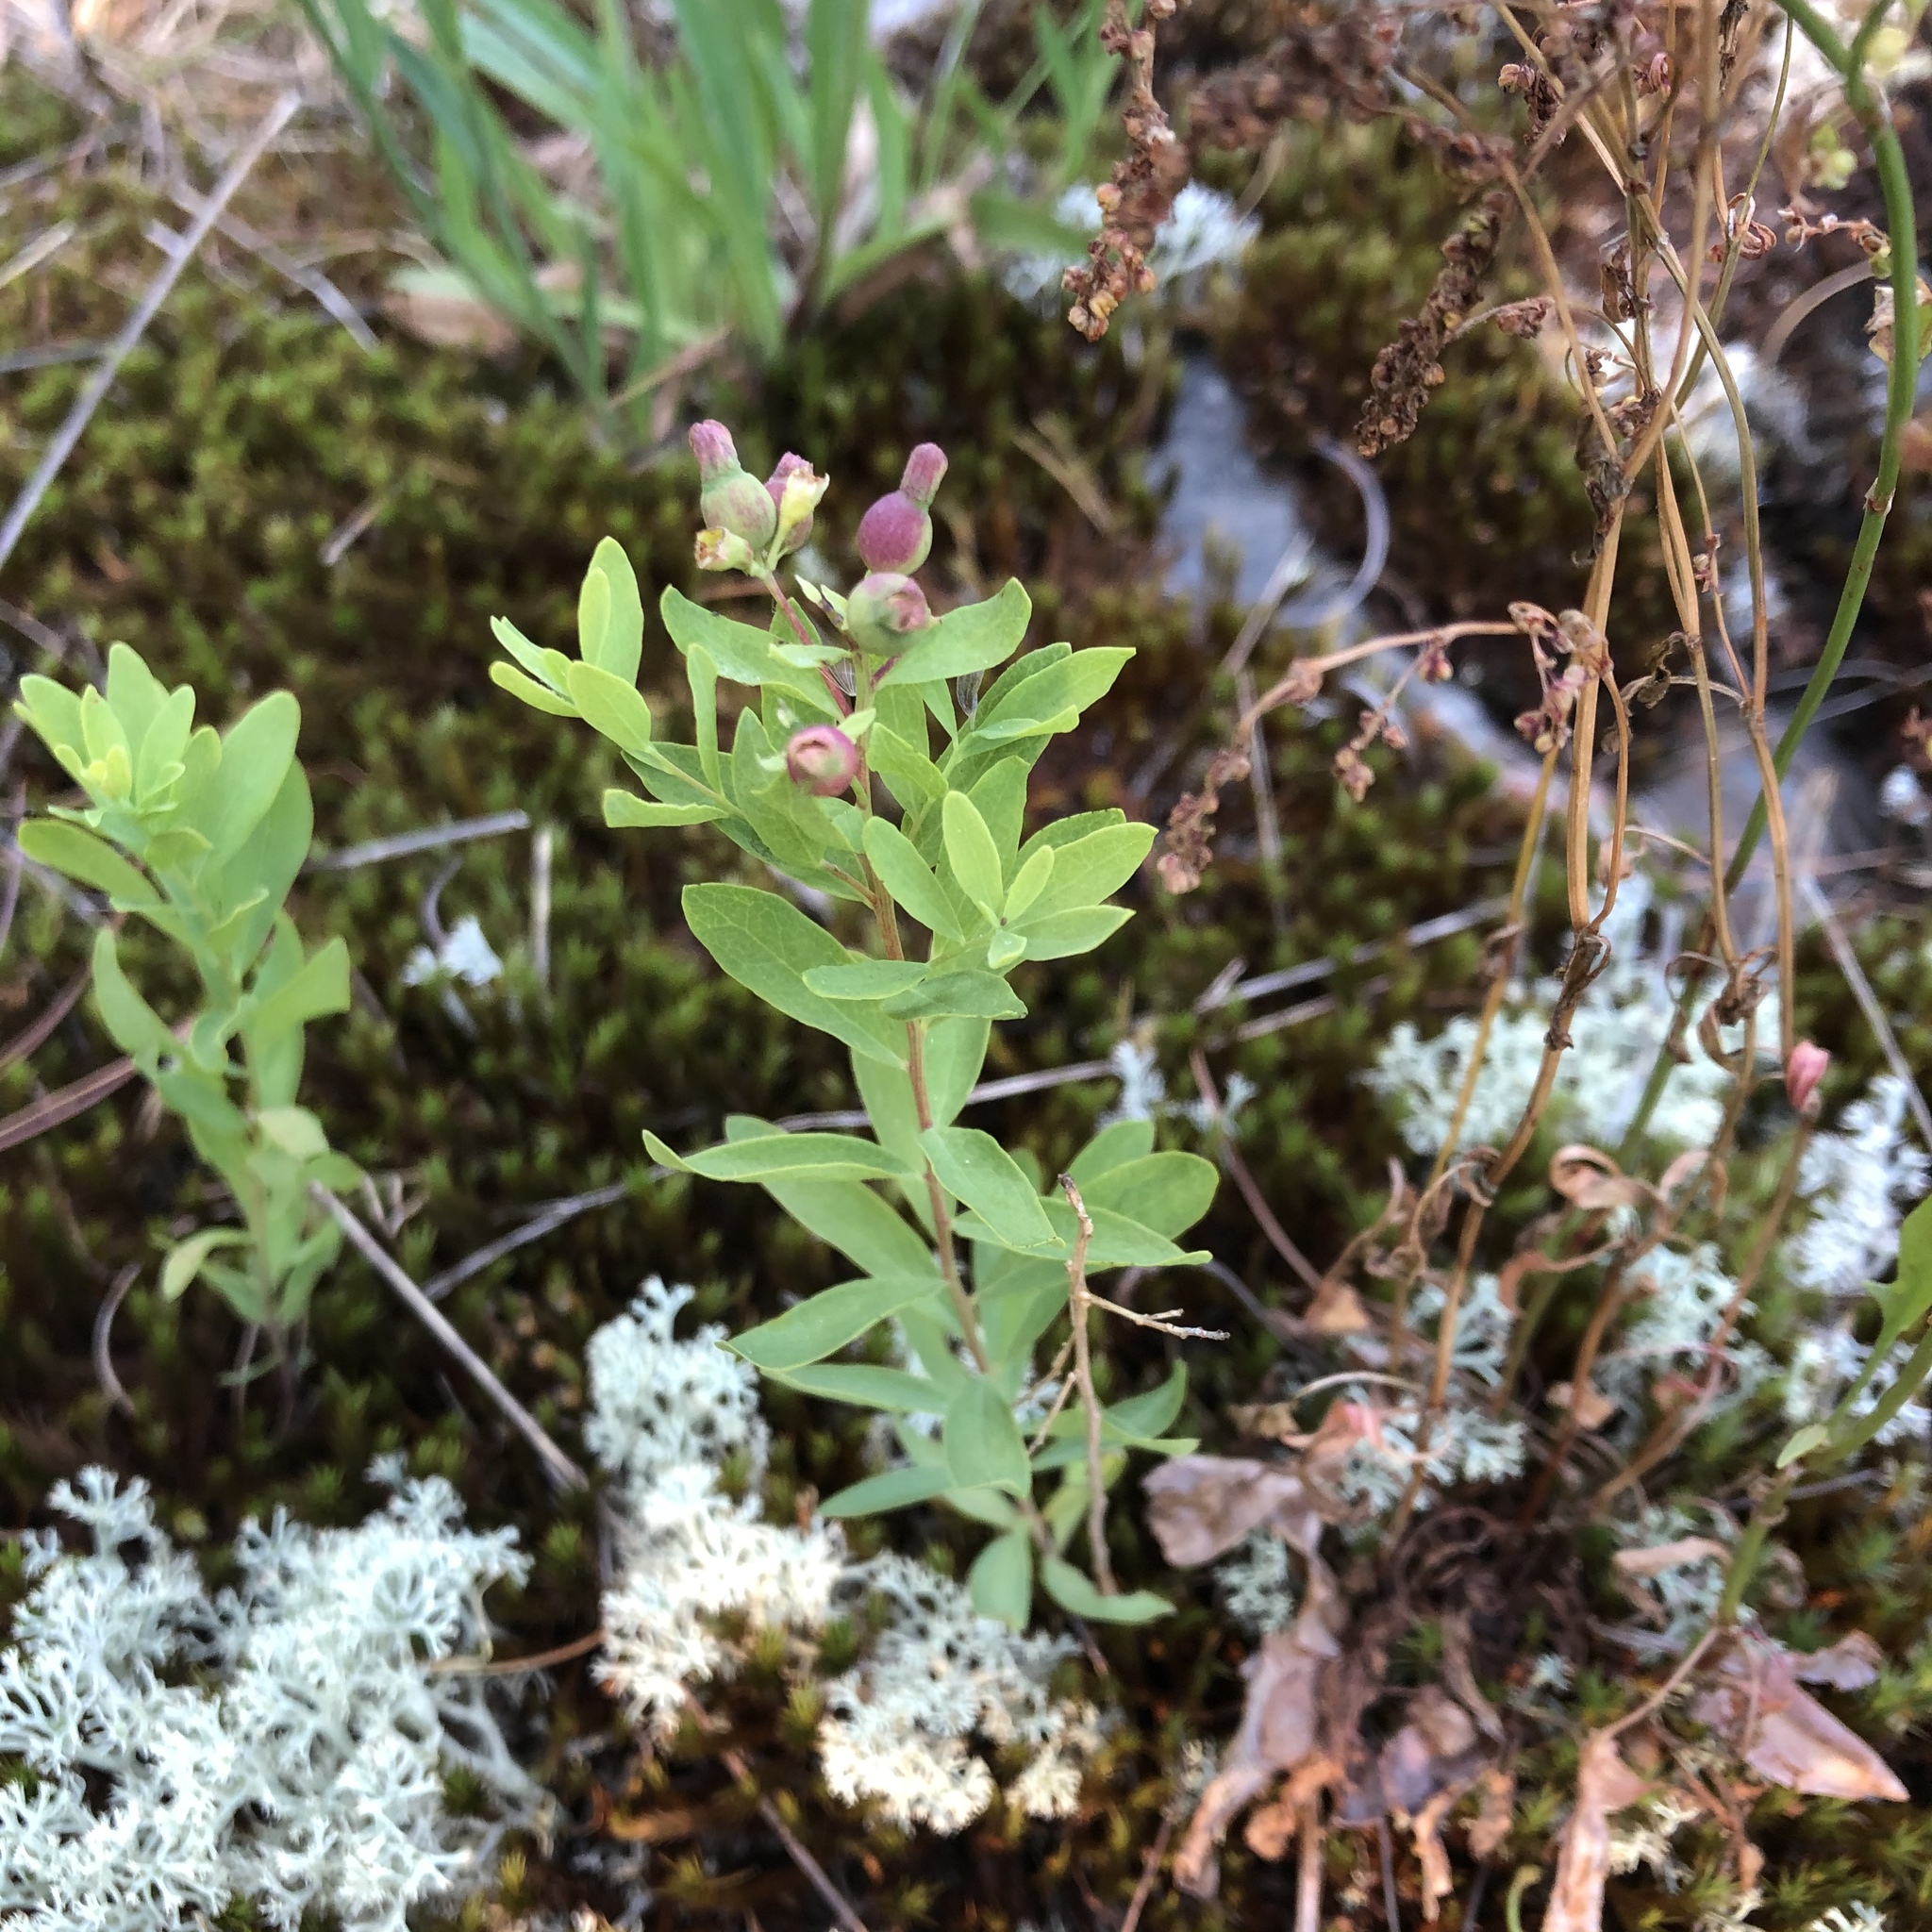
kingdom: Plantae
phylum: Tracheophyta
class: Magnoliopsida
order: Santalales
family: Comandraceae
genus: Comandra
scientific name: Comandra umbellata
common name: Bastard toadflax
